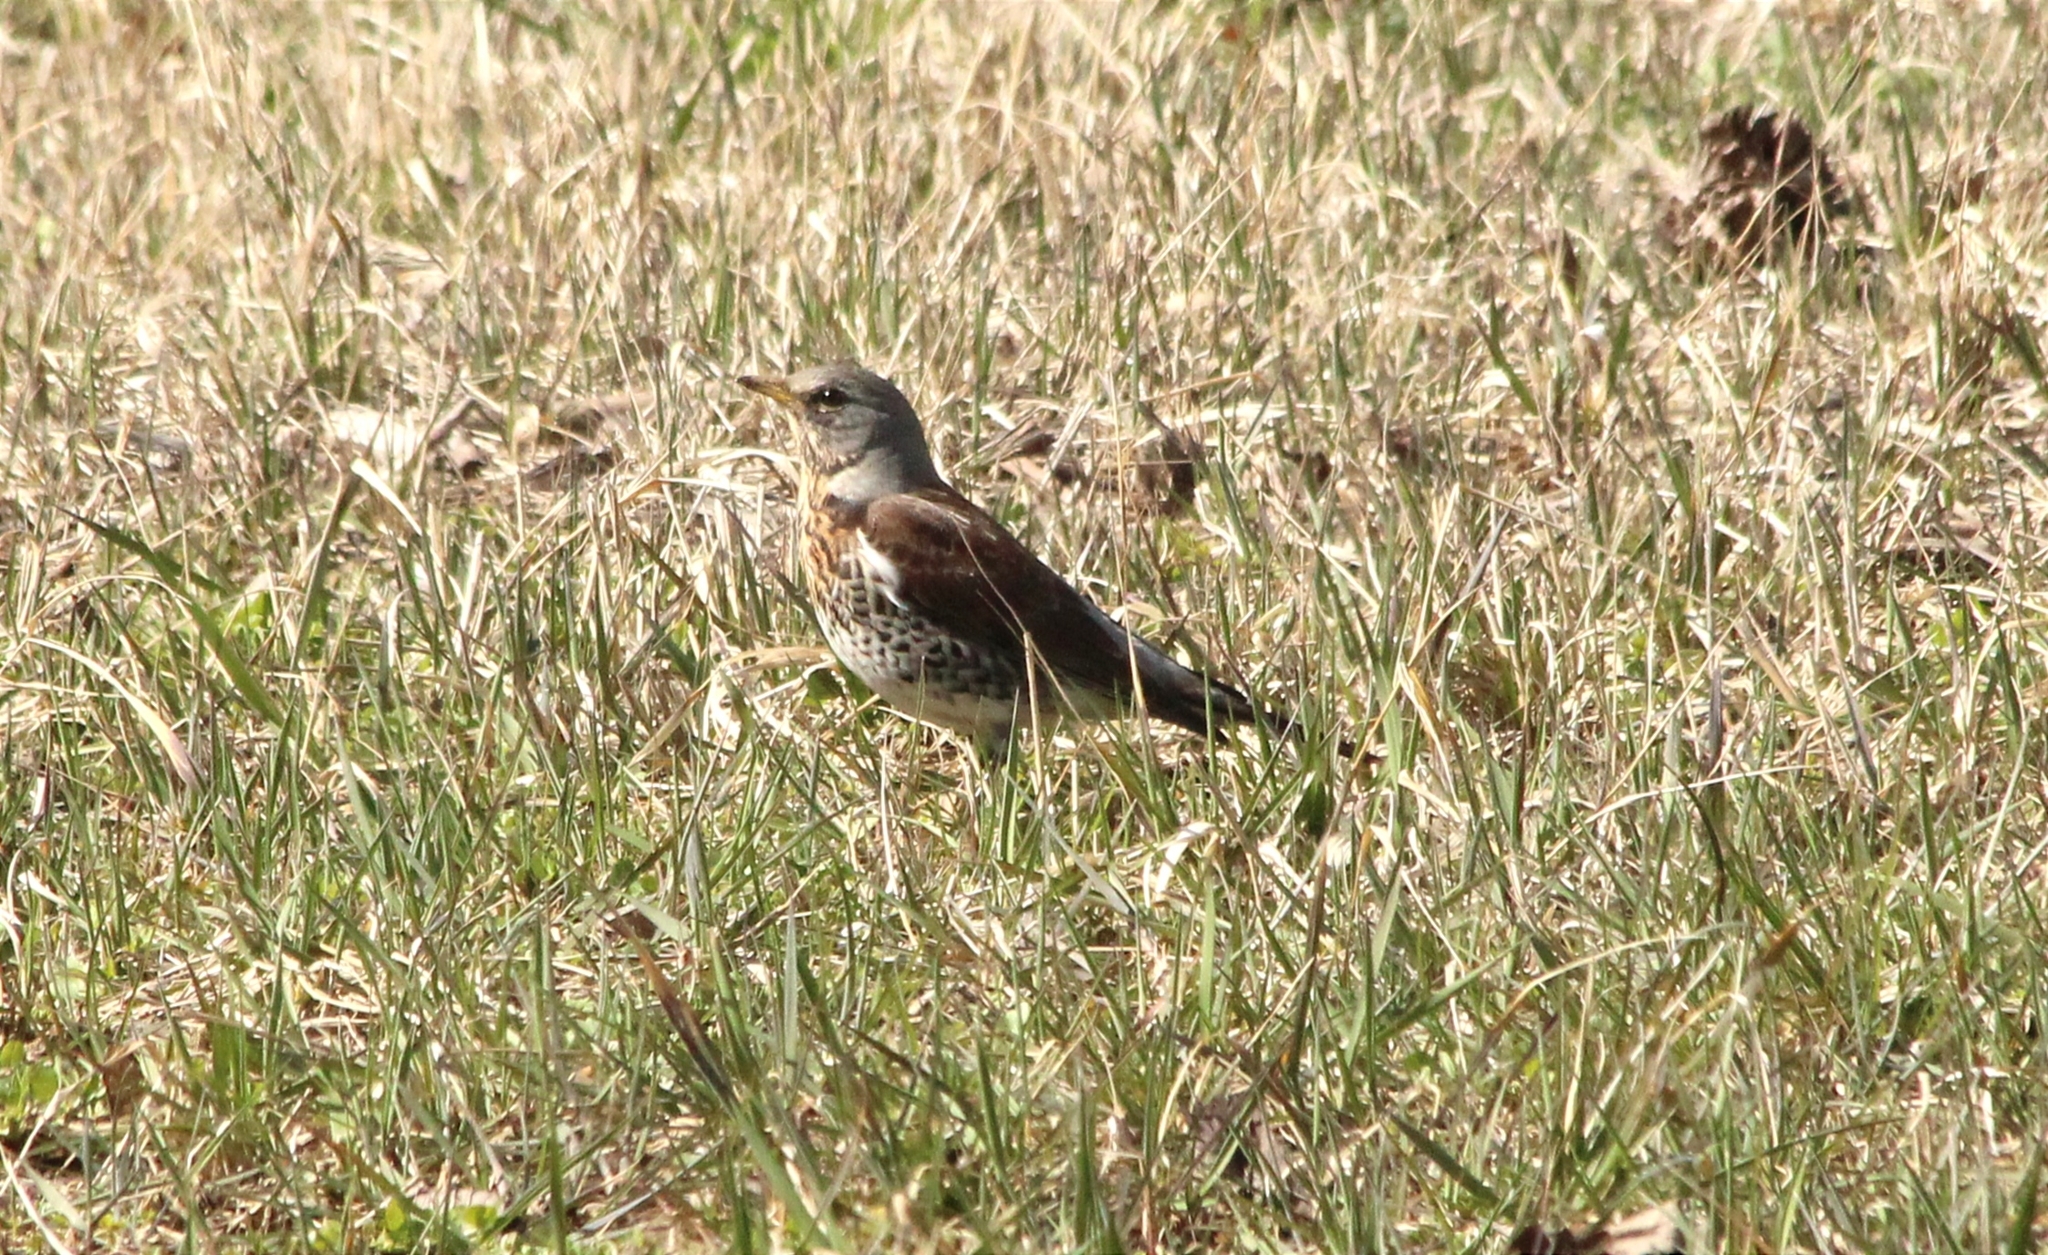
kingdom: Animalia
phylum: Chordata
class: Aves
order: Passeriformes
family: Turdidae
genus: Turdus
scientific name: Turdus pilaris
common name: Fieldfare
